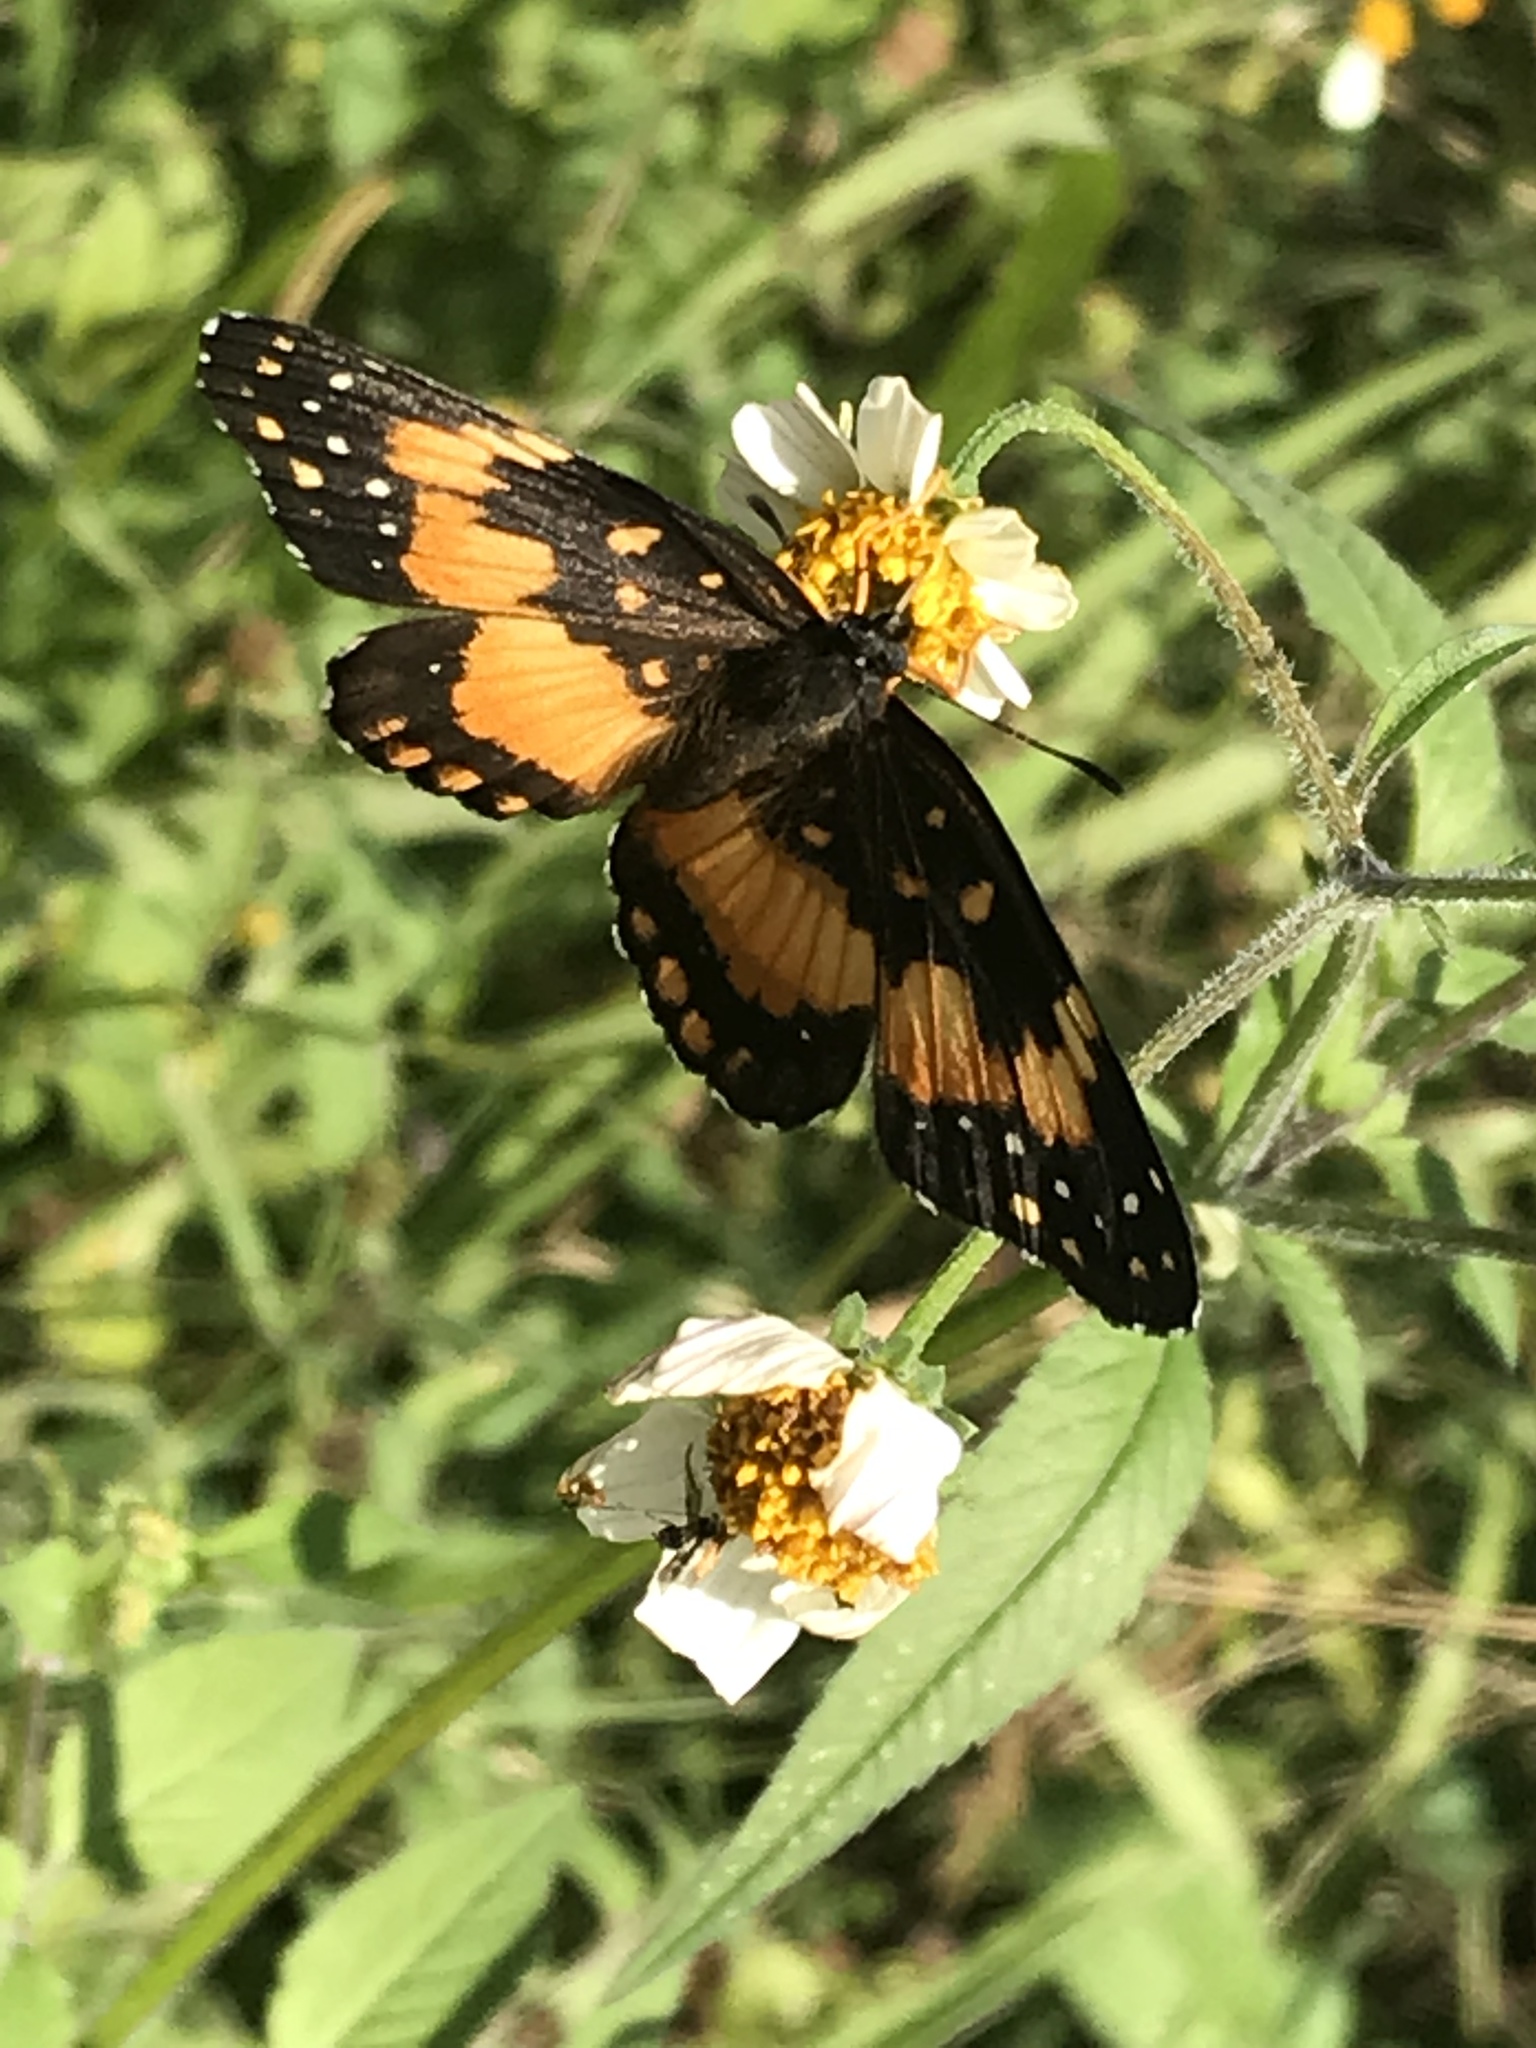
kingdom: Animalia
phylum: Arthropoda
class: Insecta
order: Lepidoptera
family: Nymphalidae
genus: Chlosyne
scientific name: Chlosyne lacinia
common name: Bordered patch
